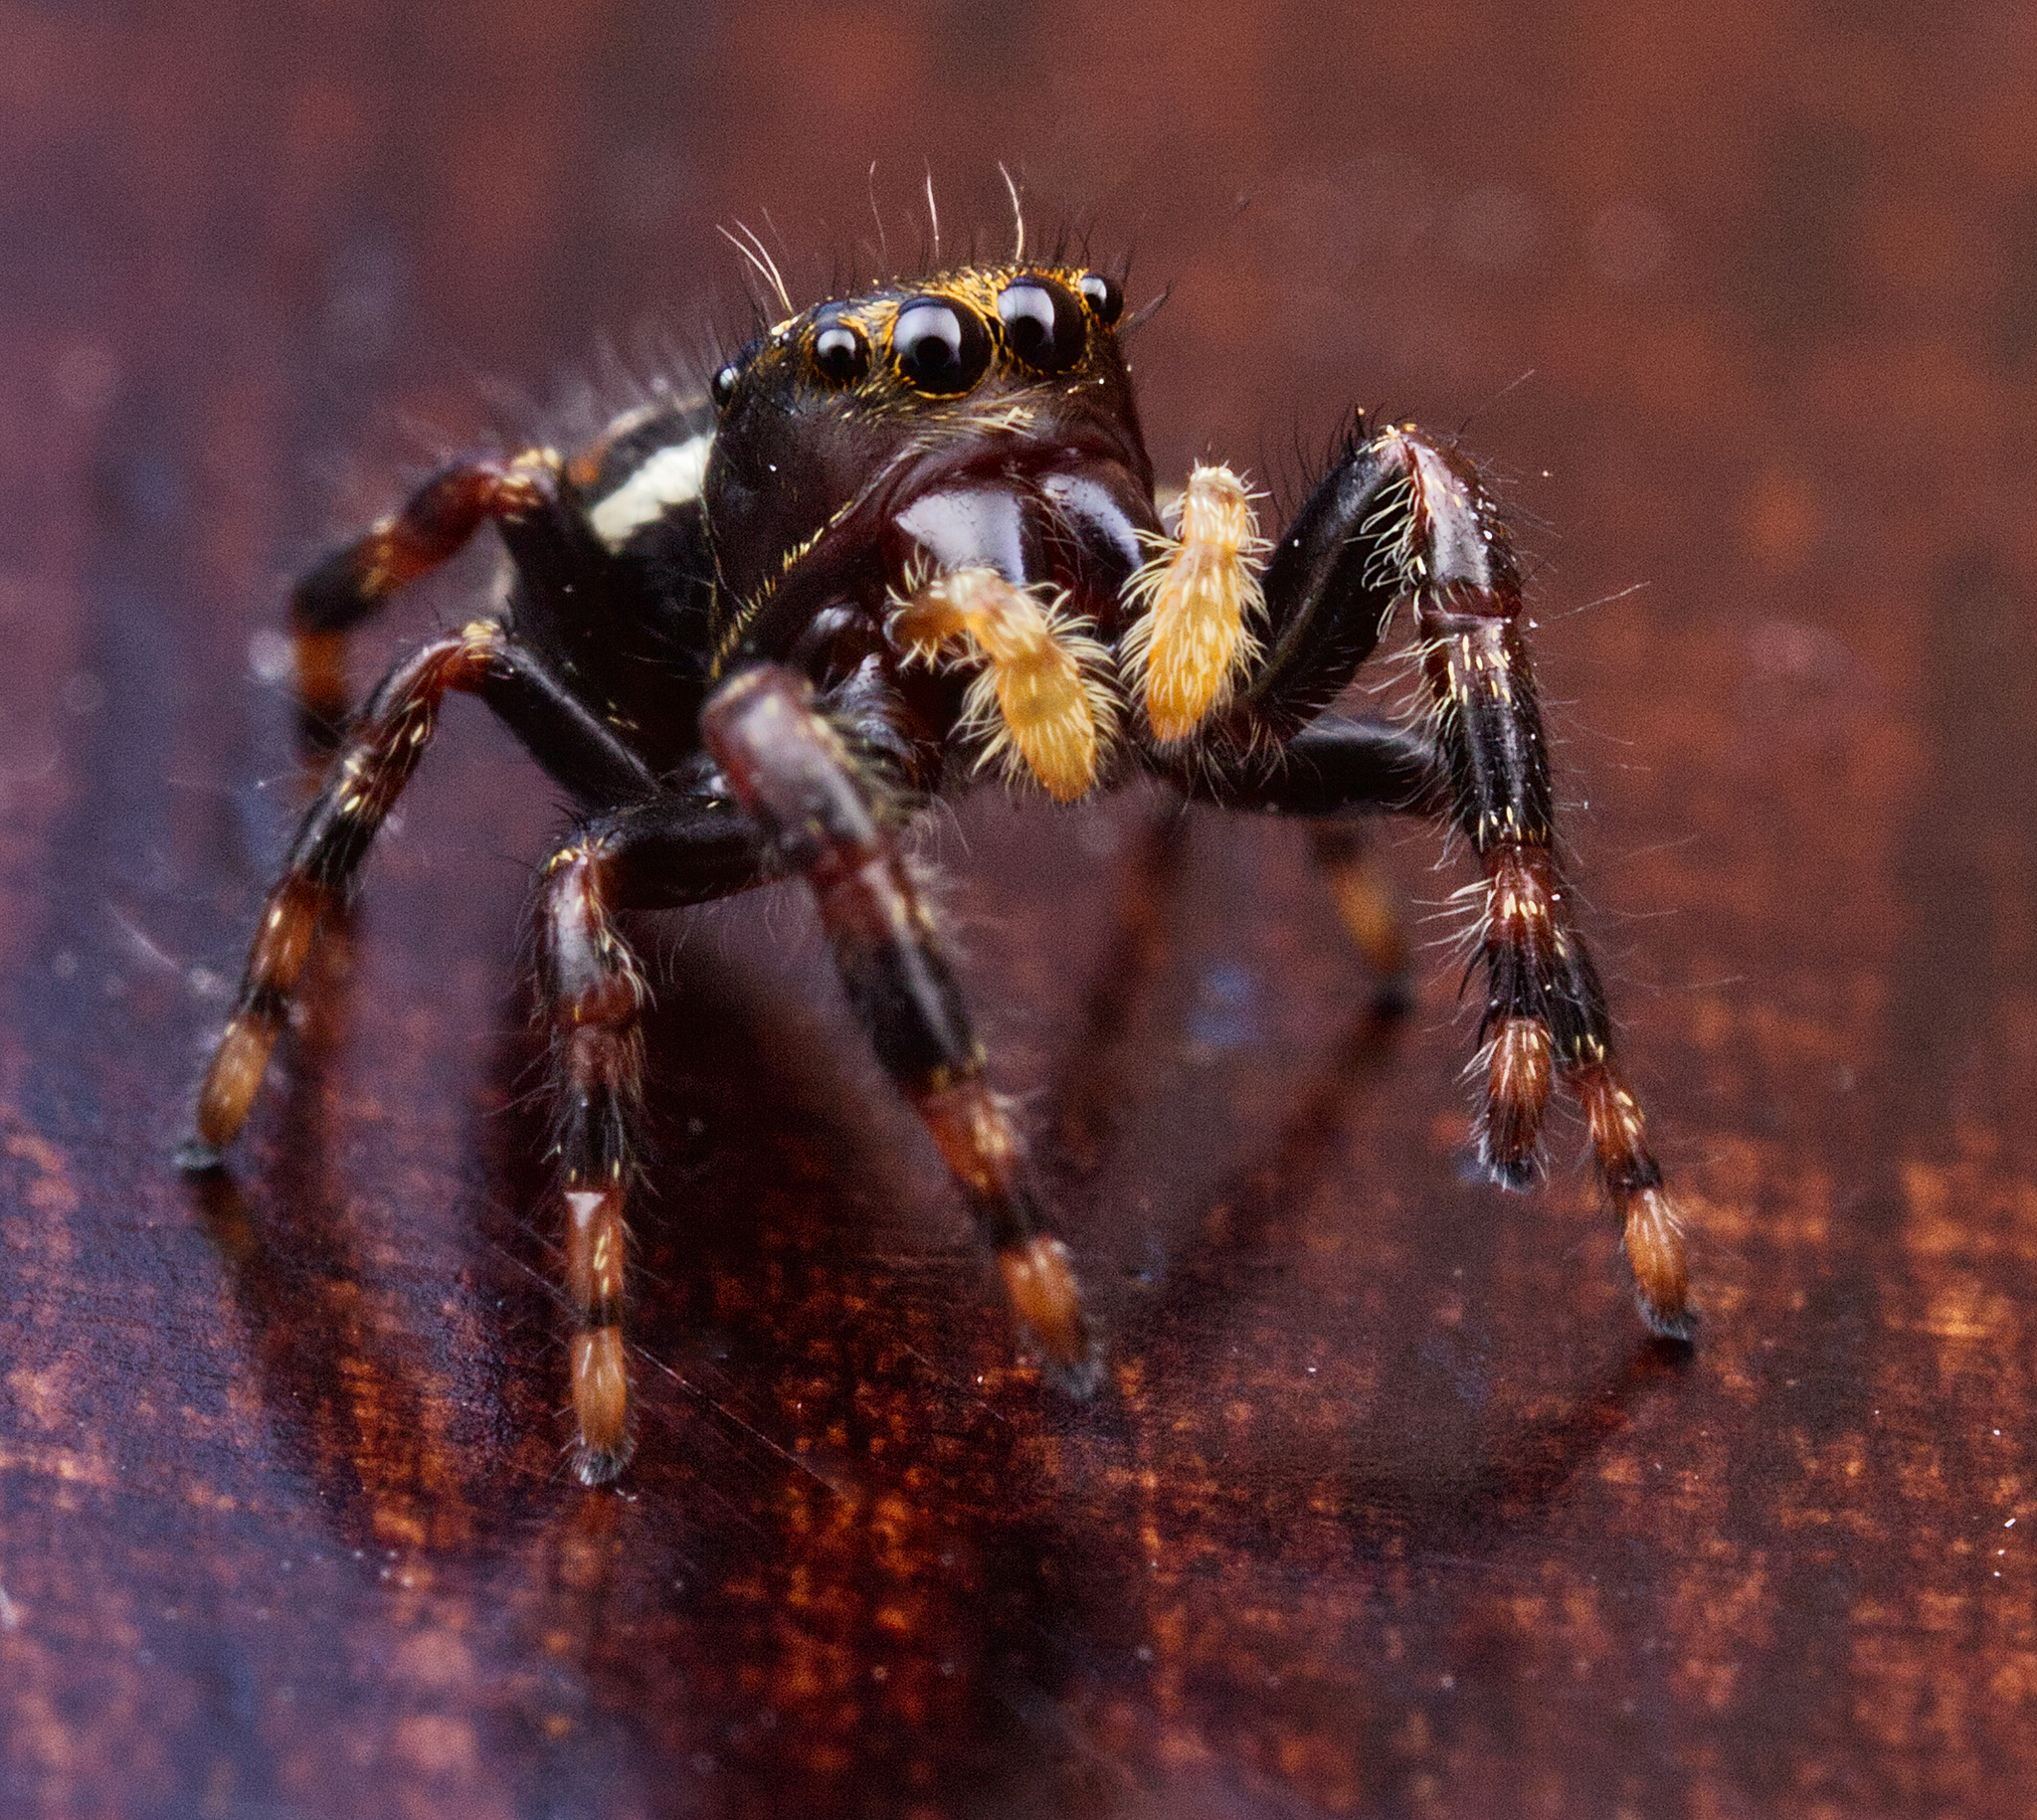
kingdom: Animalia
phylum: Arthropoda
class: Arachnida
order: Araneae
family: Salticidae
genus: Phidippus
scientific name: Phidippus clarus
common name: Brilliant jumping spider
